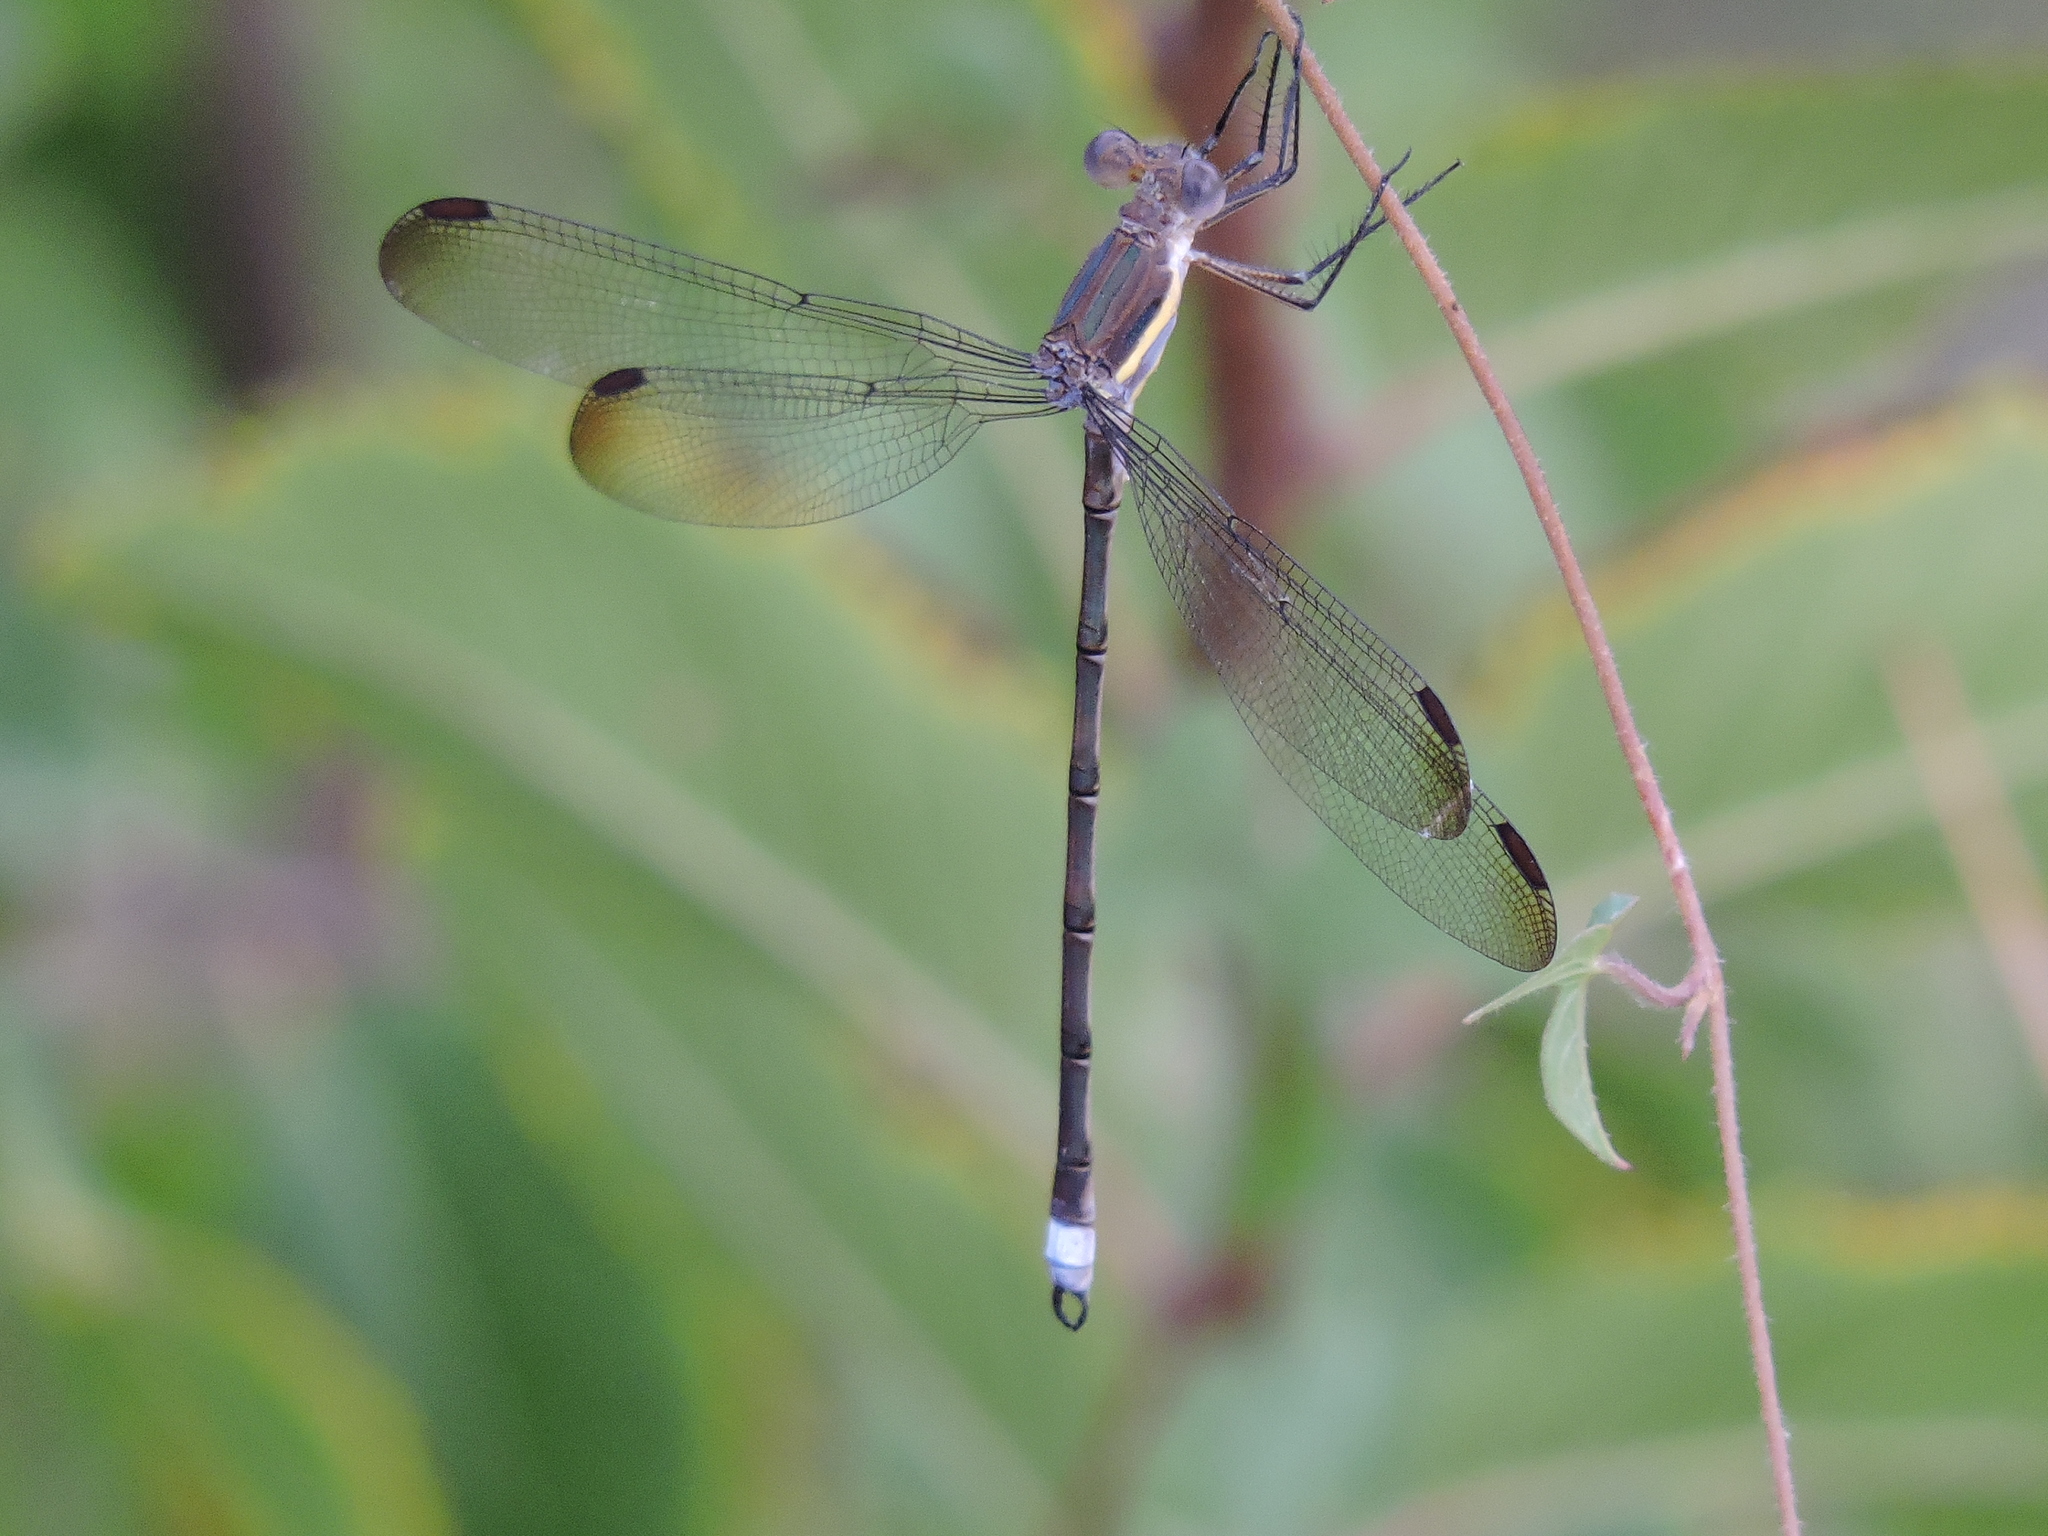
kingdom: Animalia
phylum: Arthropoda
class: Insecta
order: Odonata
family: Lestidae
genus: Archilestes
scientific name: Archilestes grandis
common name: Great spreadwing
